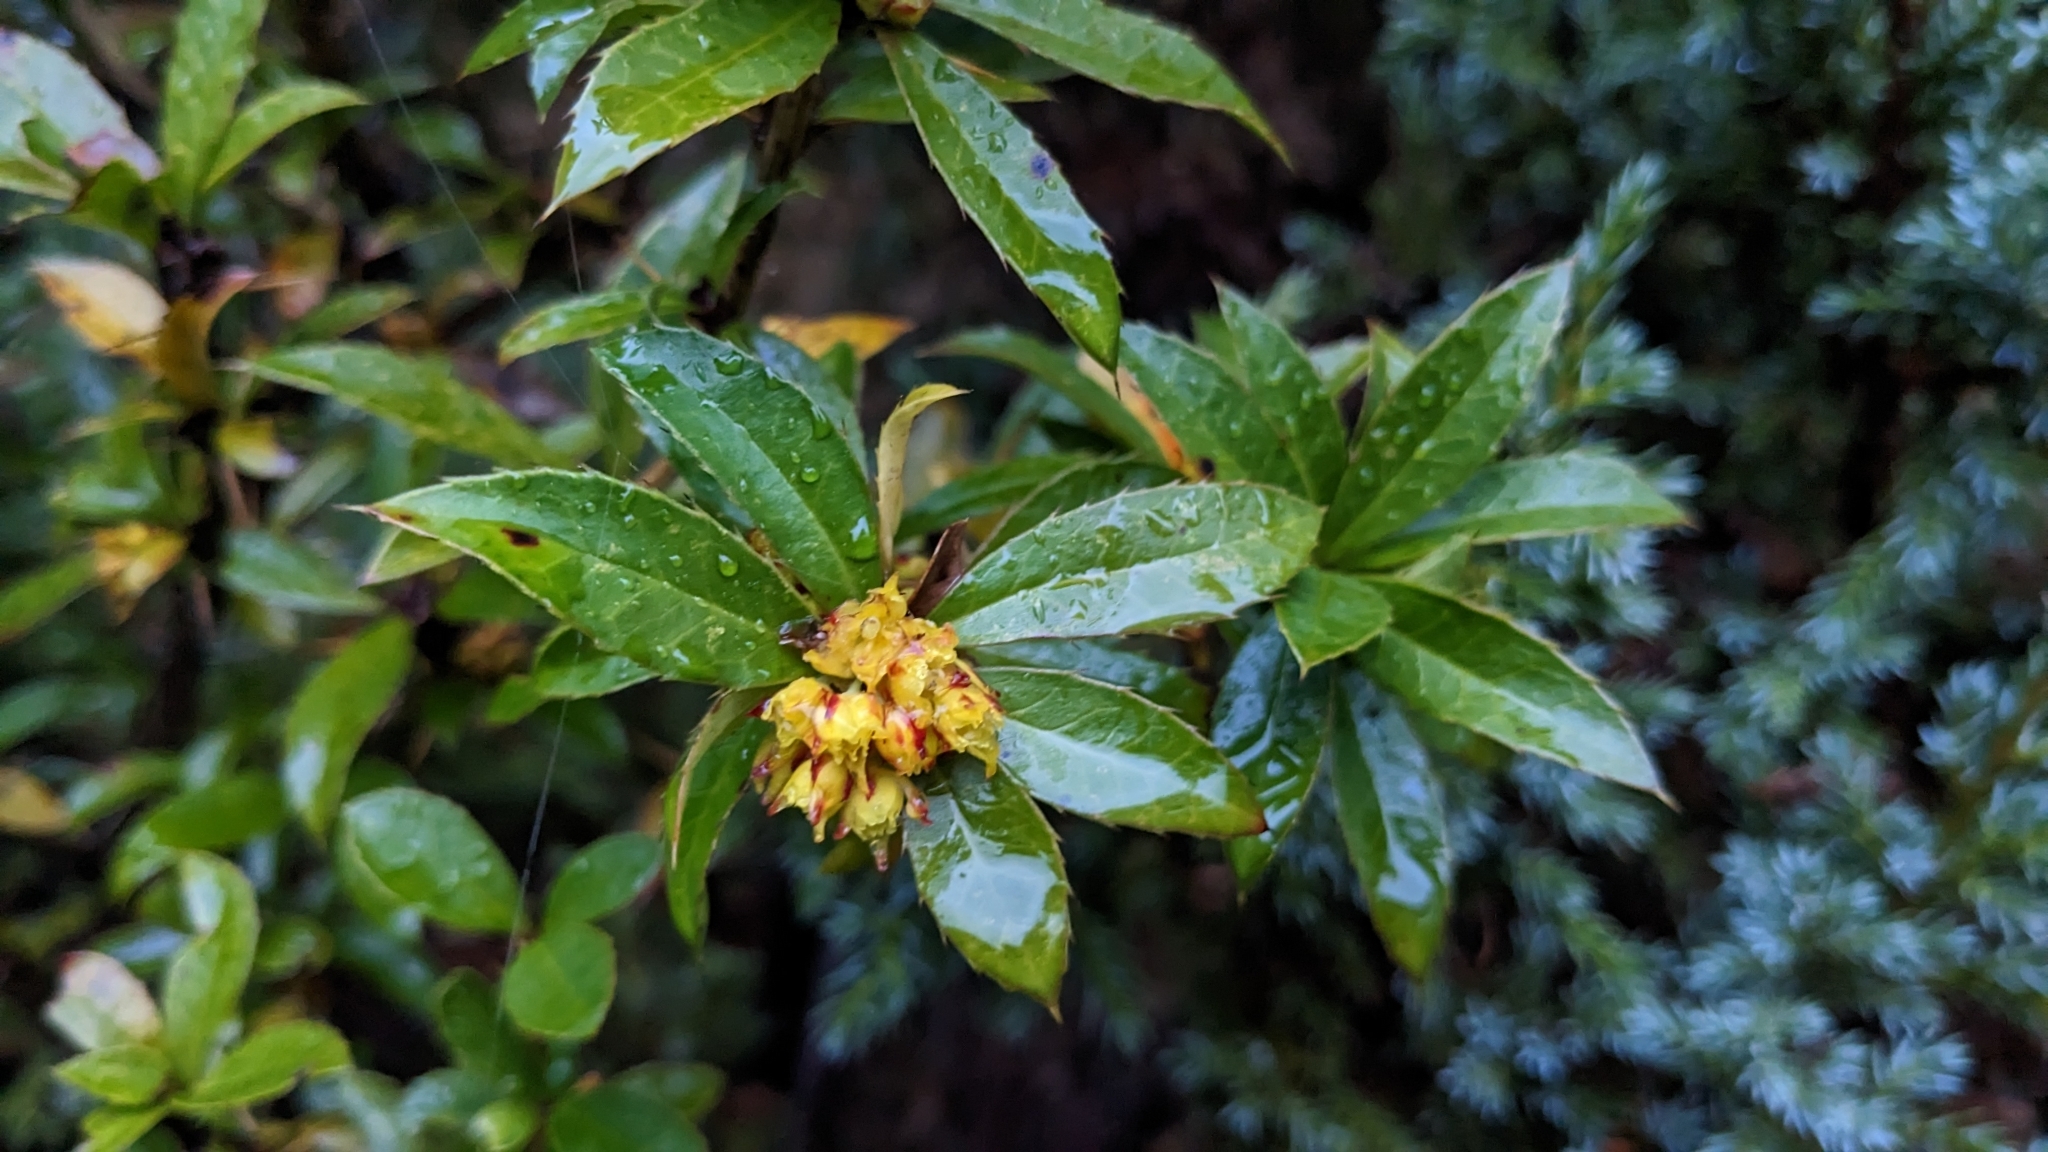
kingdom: Plantae
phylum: Tracheophyta
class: Magnoliopsida
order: Ranunculales
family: Berberidaceae
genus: Berberis
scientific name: Berberis kawakamii
